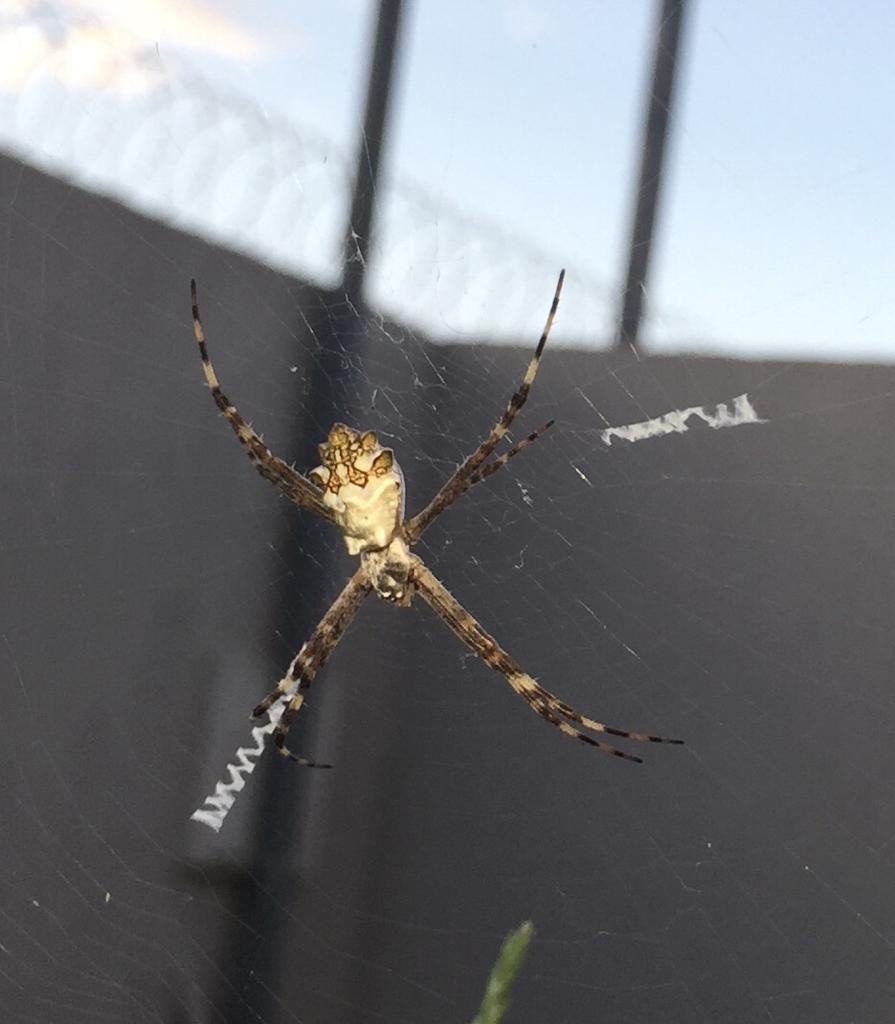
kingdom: Animalia
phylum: Arthropoda
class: Arachnida
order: Araneae
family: Araneidae
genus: Argiope
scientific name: Argiope argentata
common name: Orb weavers
